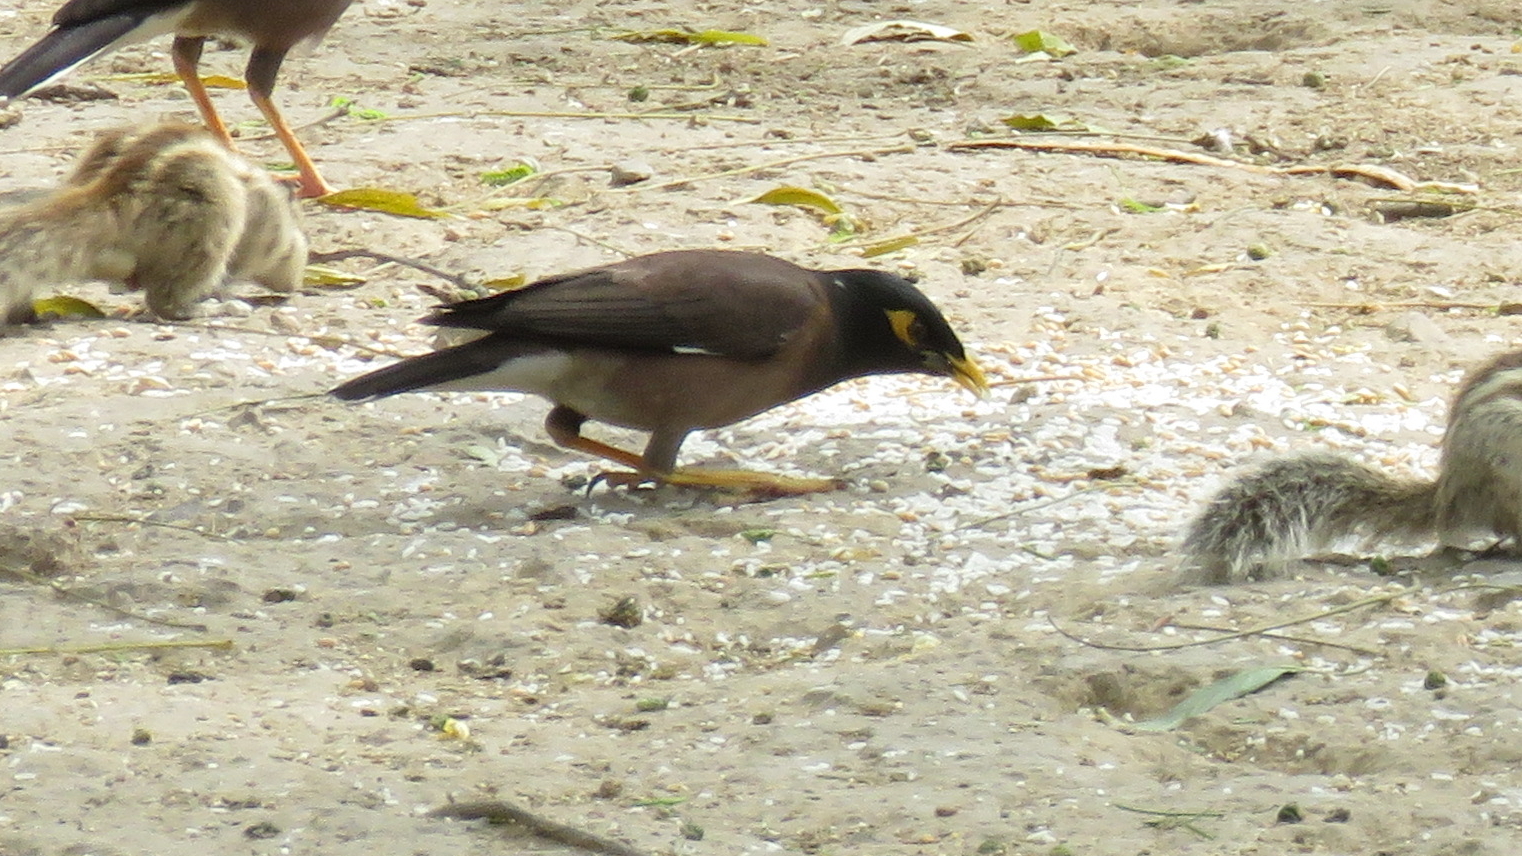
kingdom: Animalia
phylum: Chordata
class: Aves
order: Passeriformes
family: Sturnidae
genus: Acridotheres
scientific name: Acridotheres tristis
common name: Common myna
